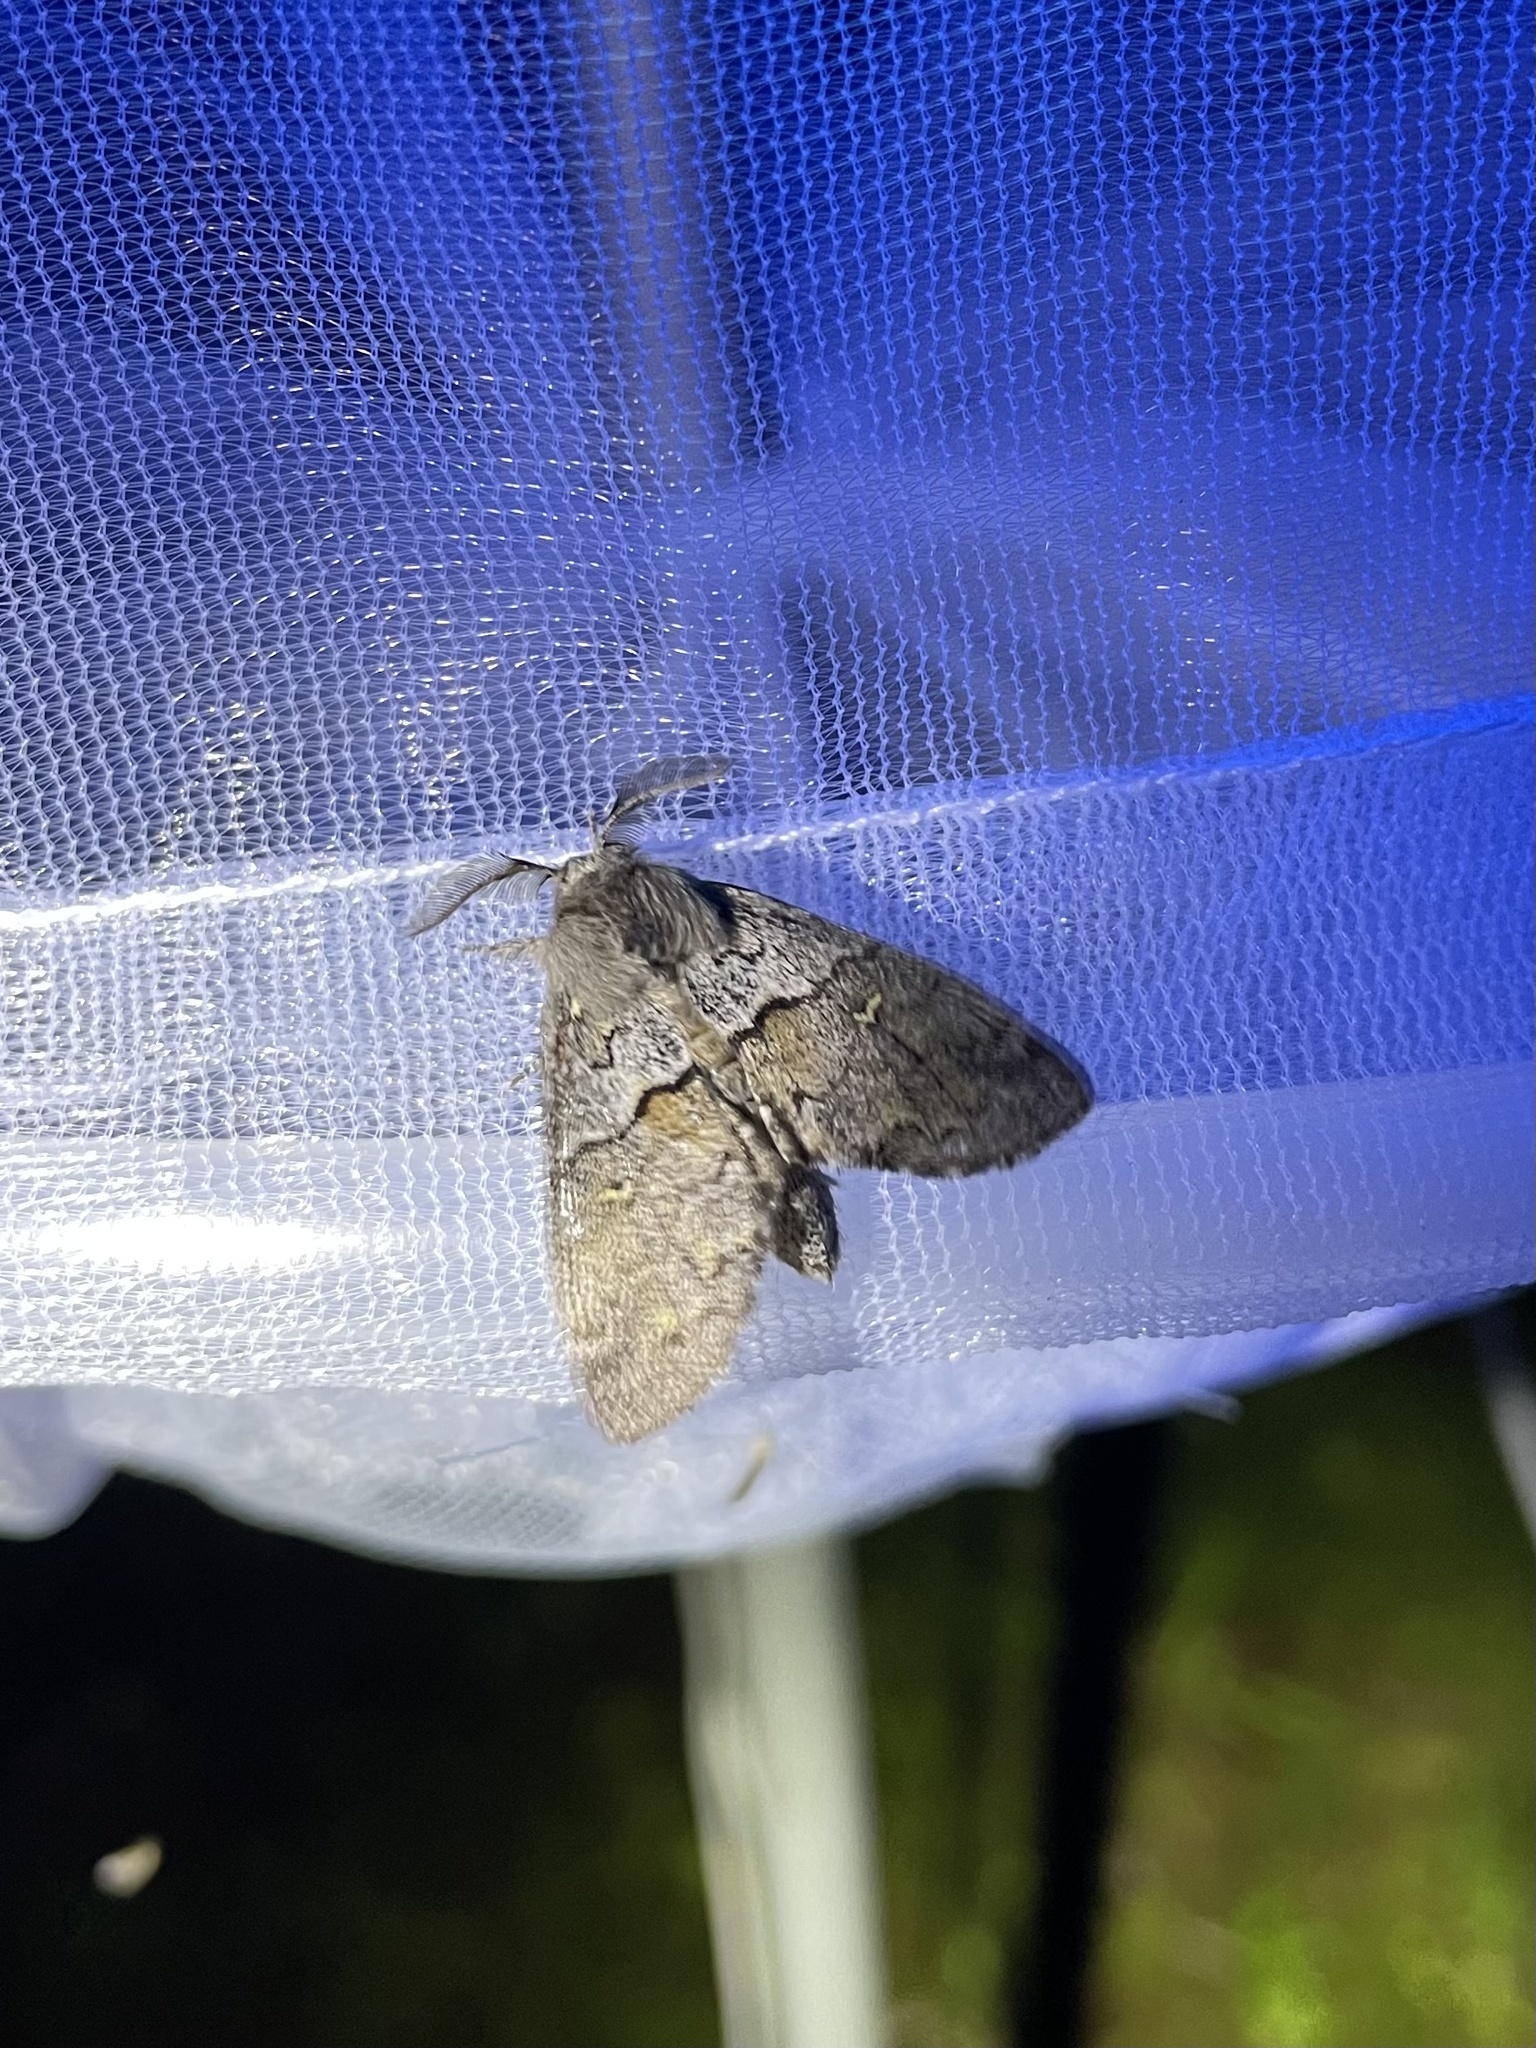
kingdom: Animalia
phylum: Arthropoda
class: Insecta
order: Lepidoptera
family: Notodontidae
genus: Gluphisia
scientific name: Gluphisia avimacula
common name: Four-spotted gluphisia moth
